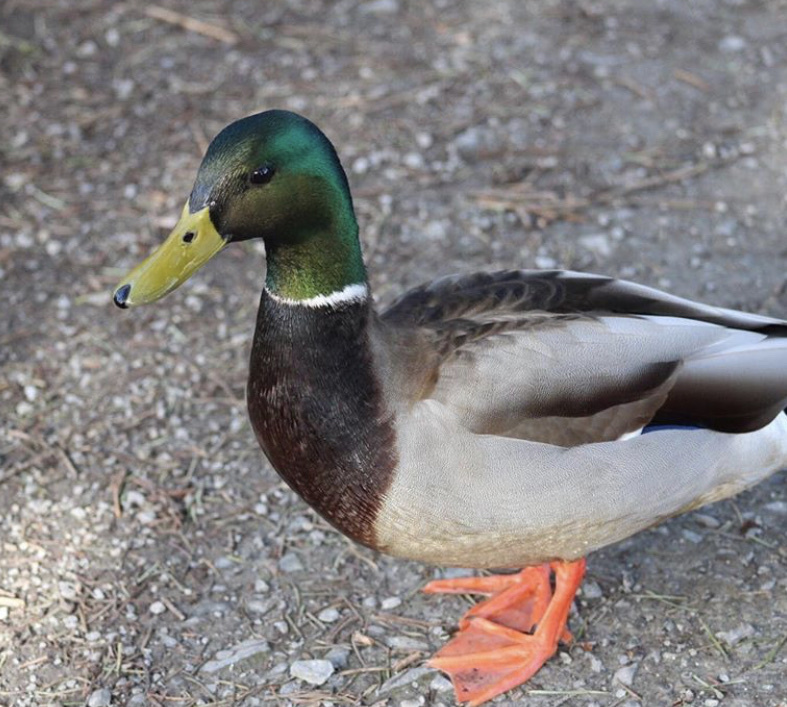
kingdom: Animalia
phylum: Chordata
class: Aves
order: Anseriformes
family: Anatidae
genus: Anas
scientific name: Anas platyrhynchos
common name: Mallard
